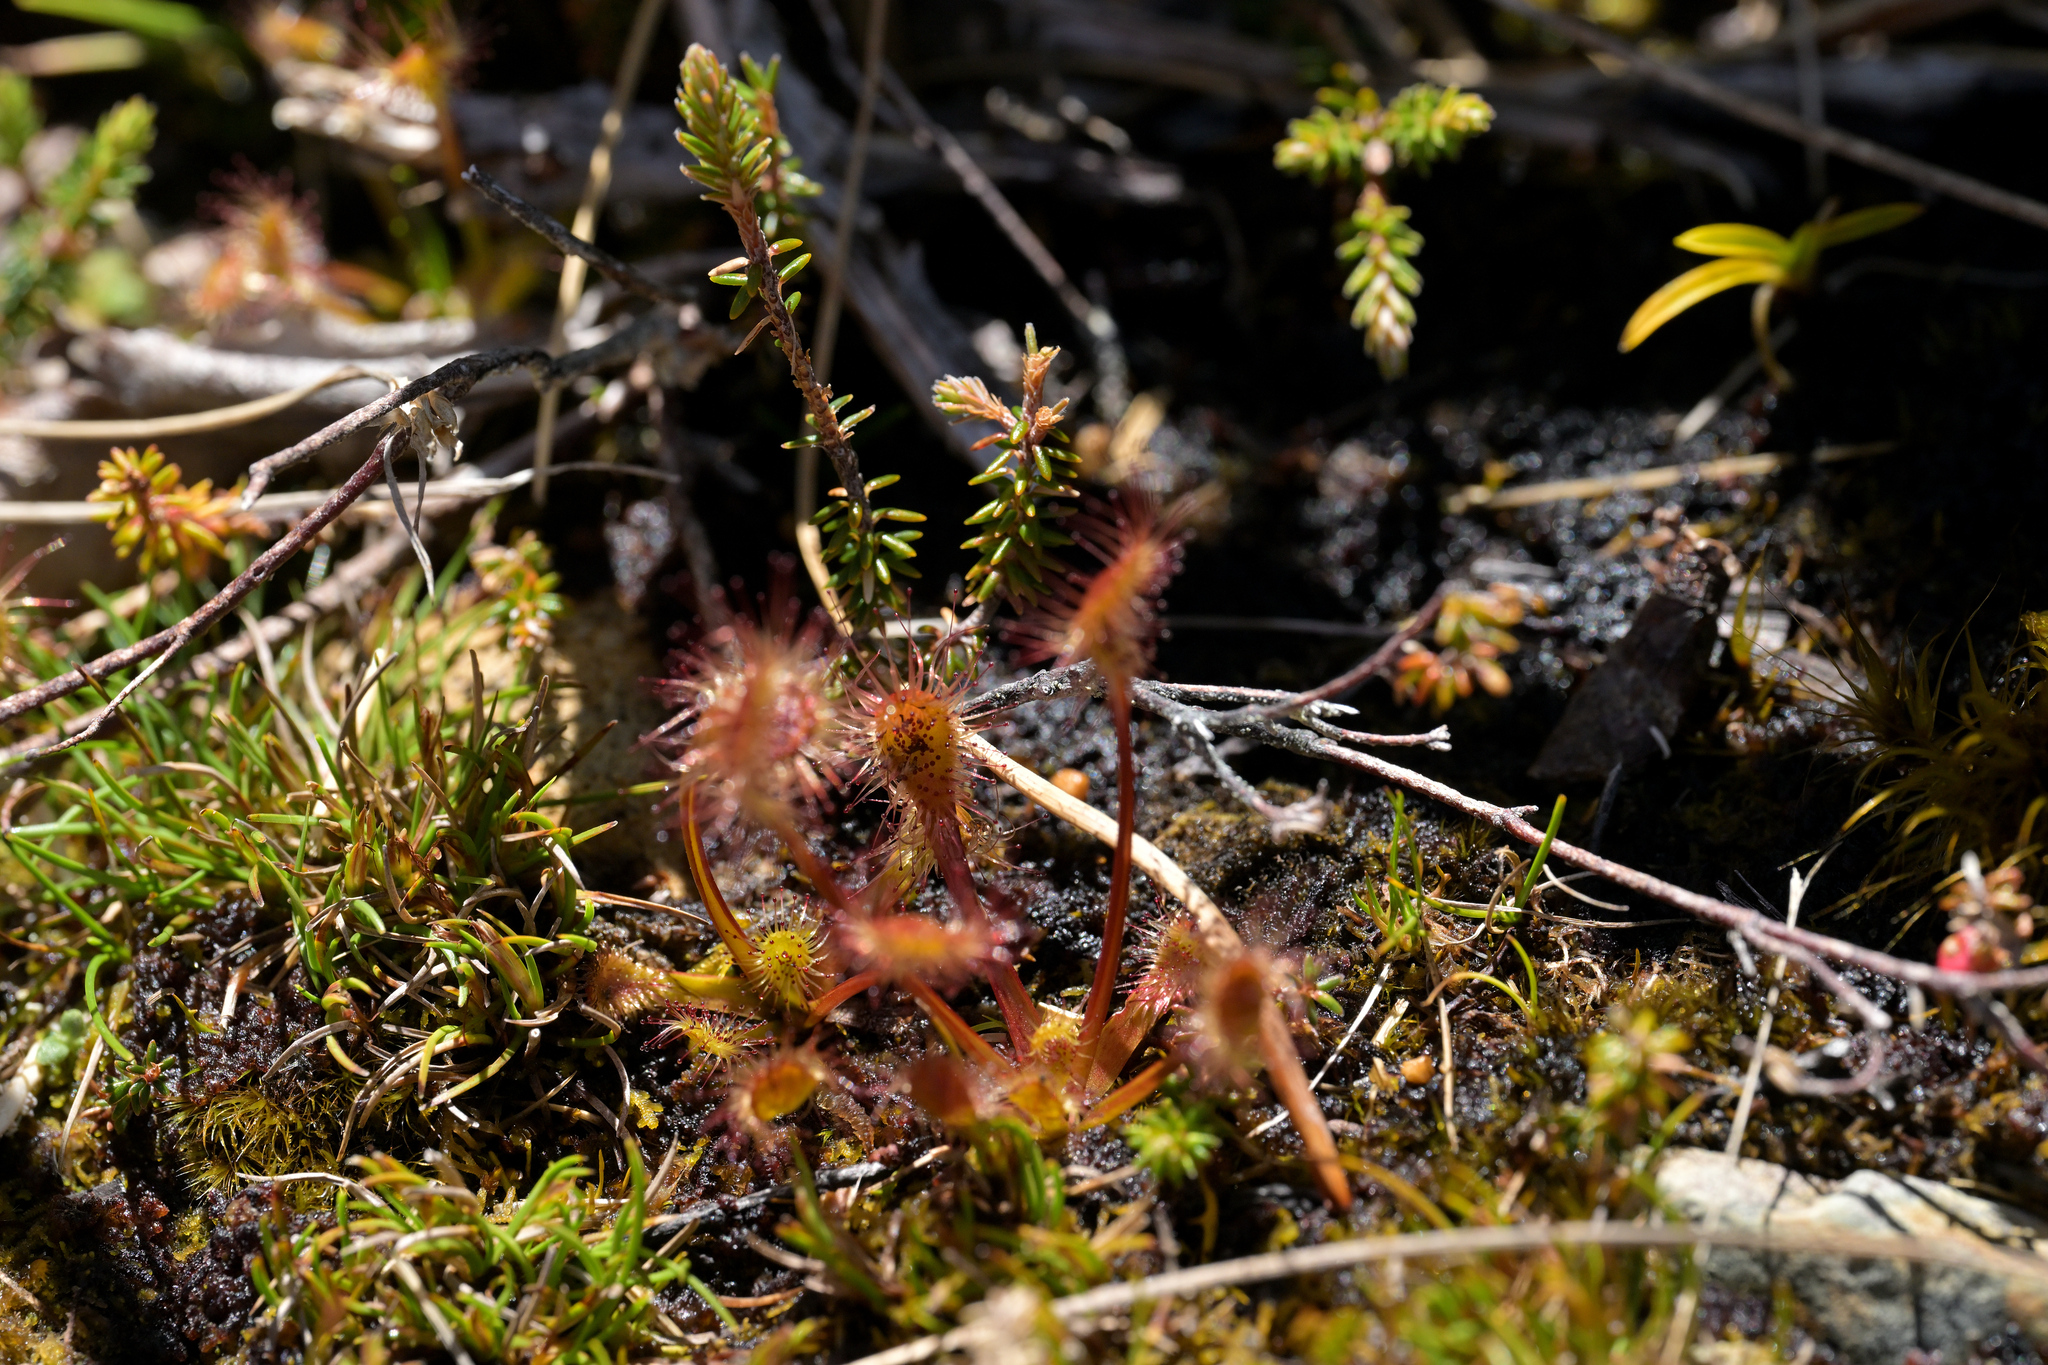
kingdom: Plantae
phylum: Tracheophyta
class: Magnoliopsida
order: Caryophyllales
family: Droseraceae
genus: Drosera
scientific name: Drosera stenopetala
